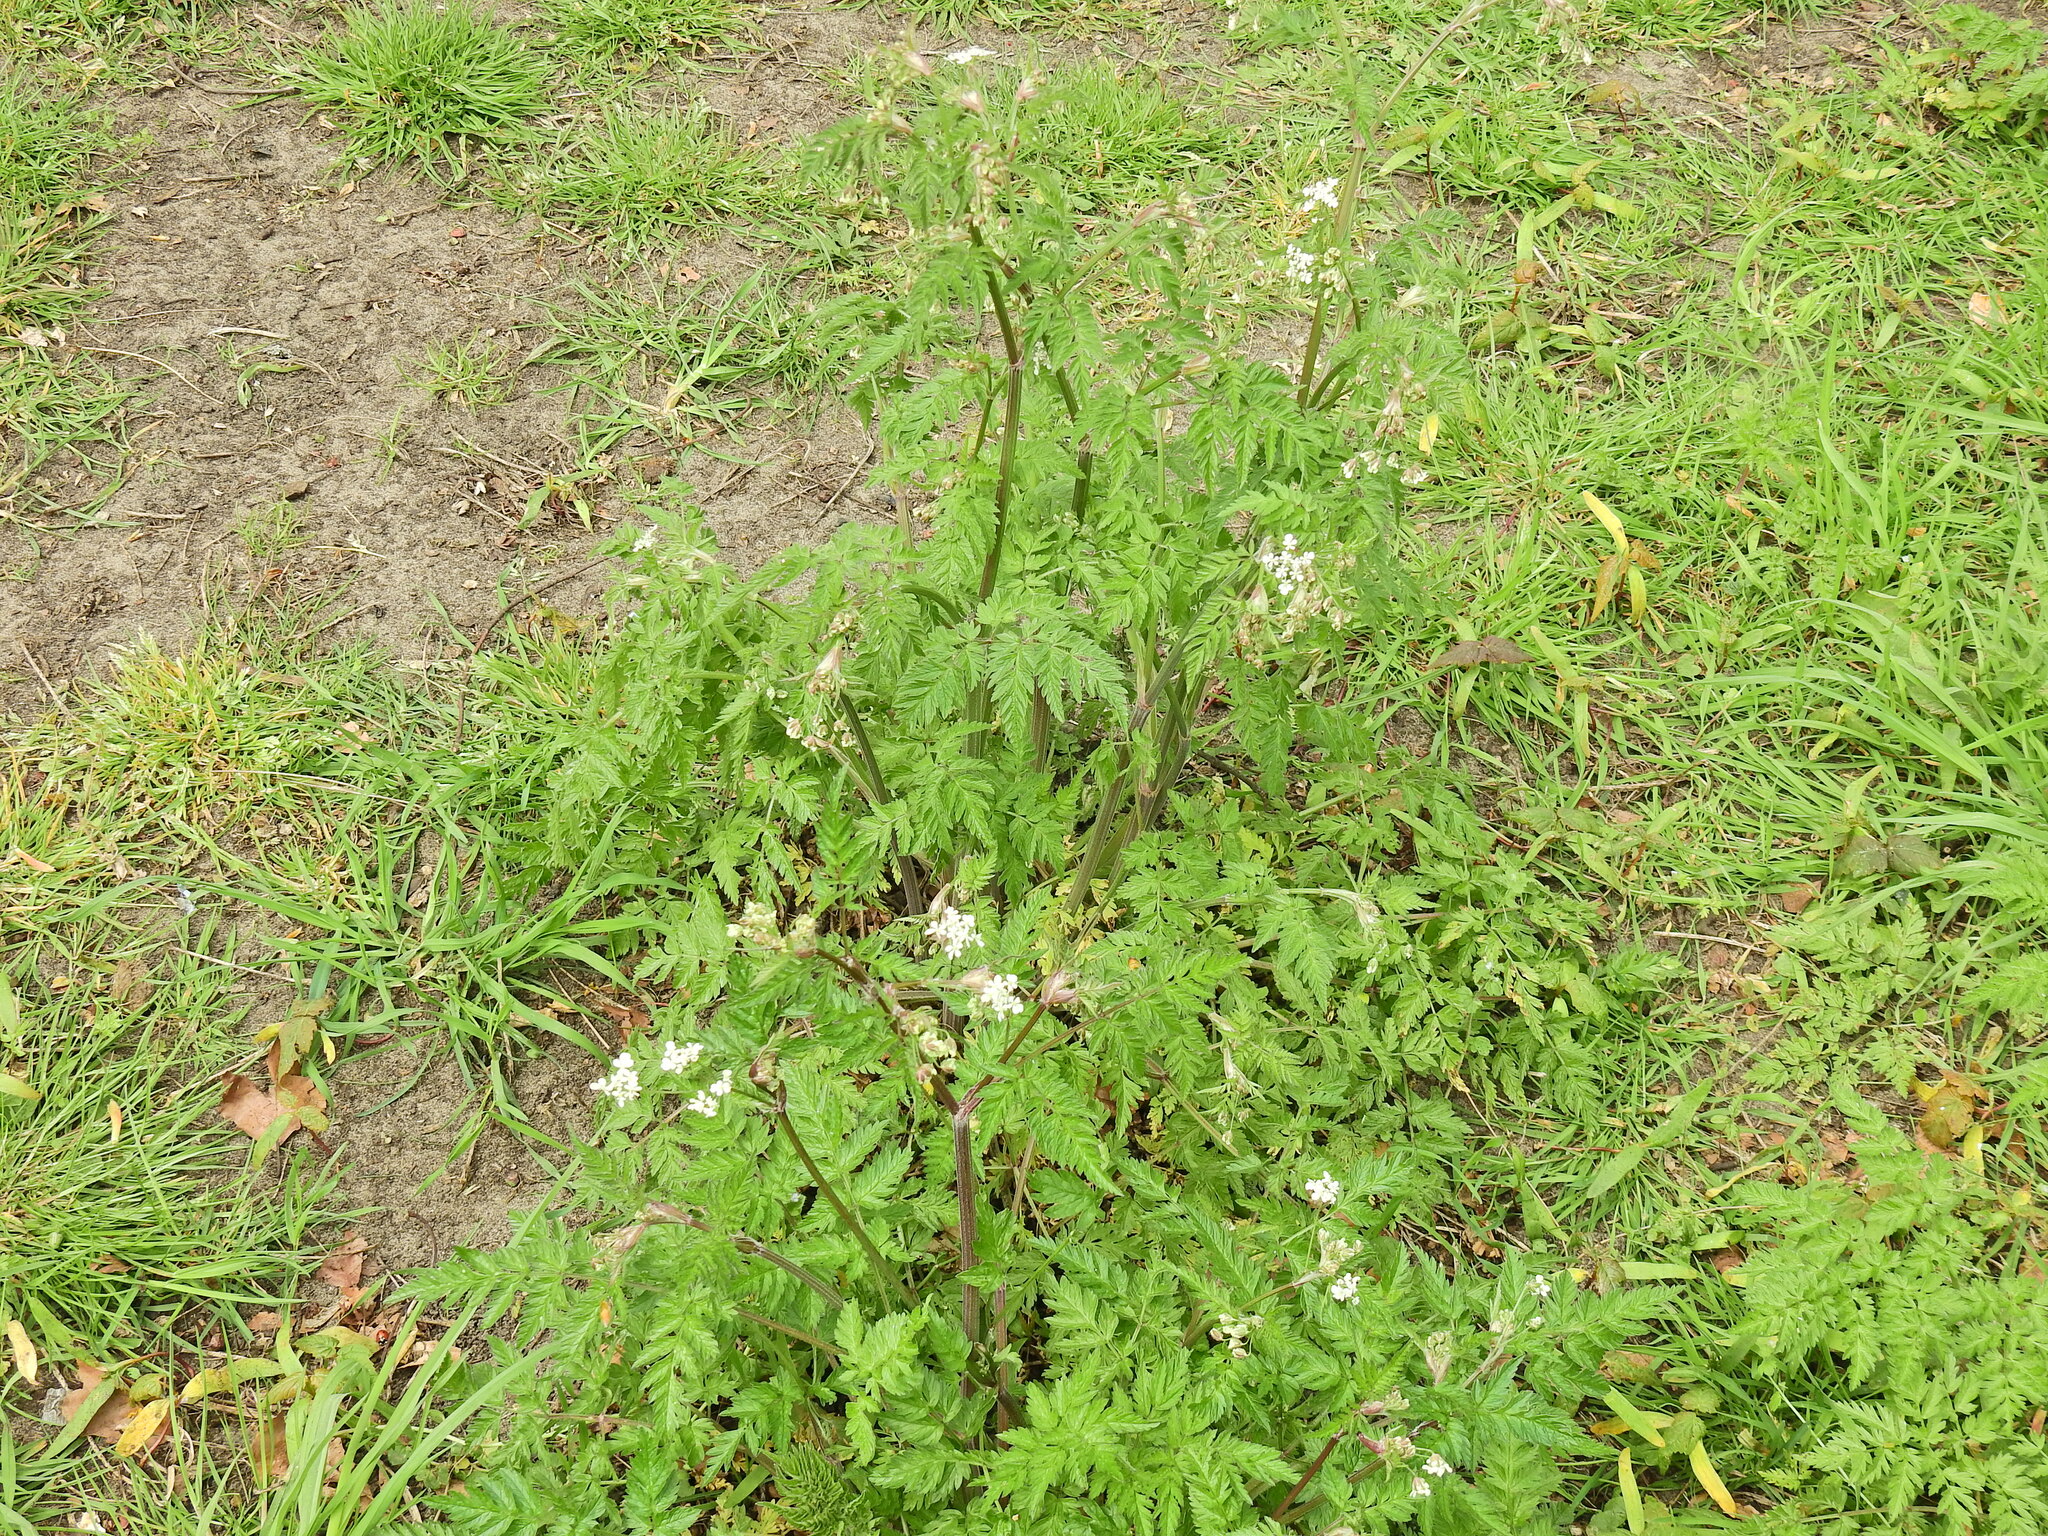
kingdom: Plantae
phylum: Tracheophyta
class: Magnoliopsida
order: Apiales
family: Apiaceae
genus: Anthriscus
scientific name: Anthriscus sylvestris
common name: Cow parsley
